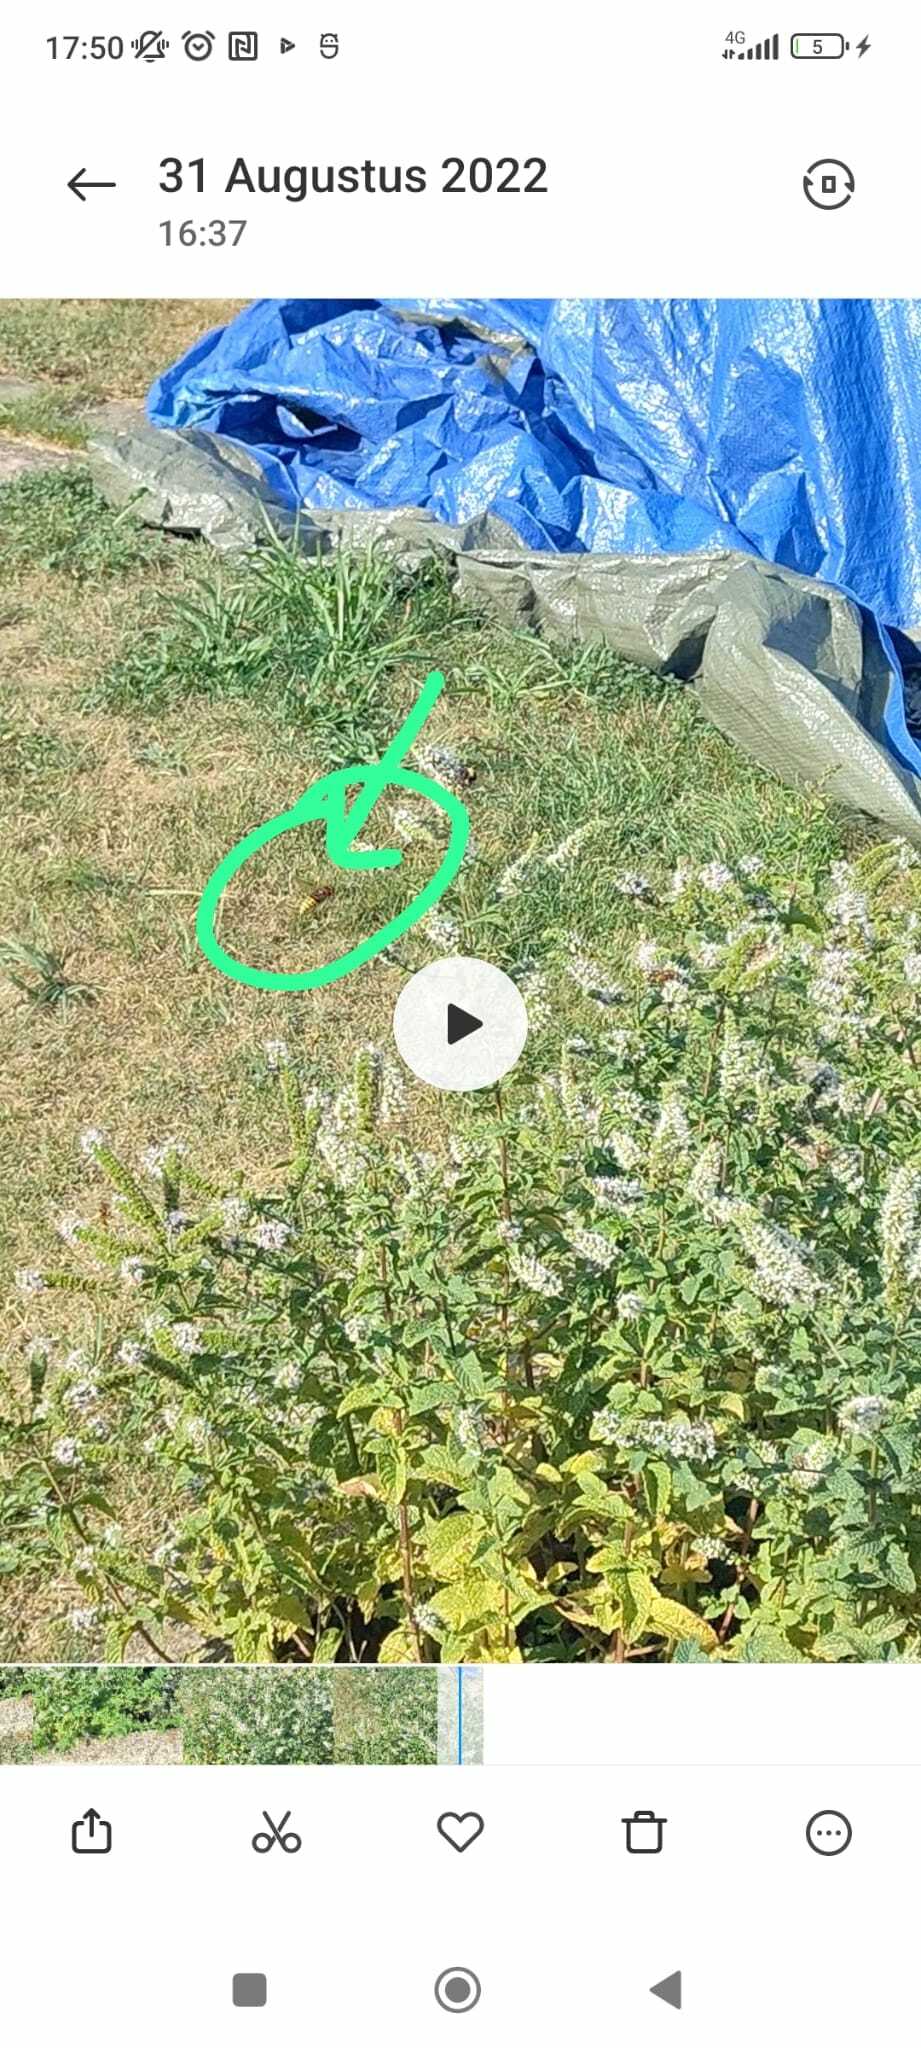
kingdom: Animalia
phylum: Arthropoda
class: Insecta
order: Hymenoptera
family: Vespidae
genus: Vespa
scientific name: Vespa crabro
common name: Hornet
